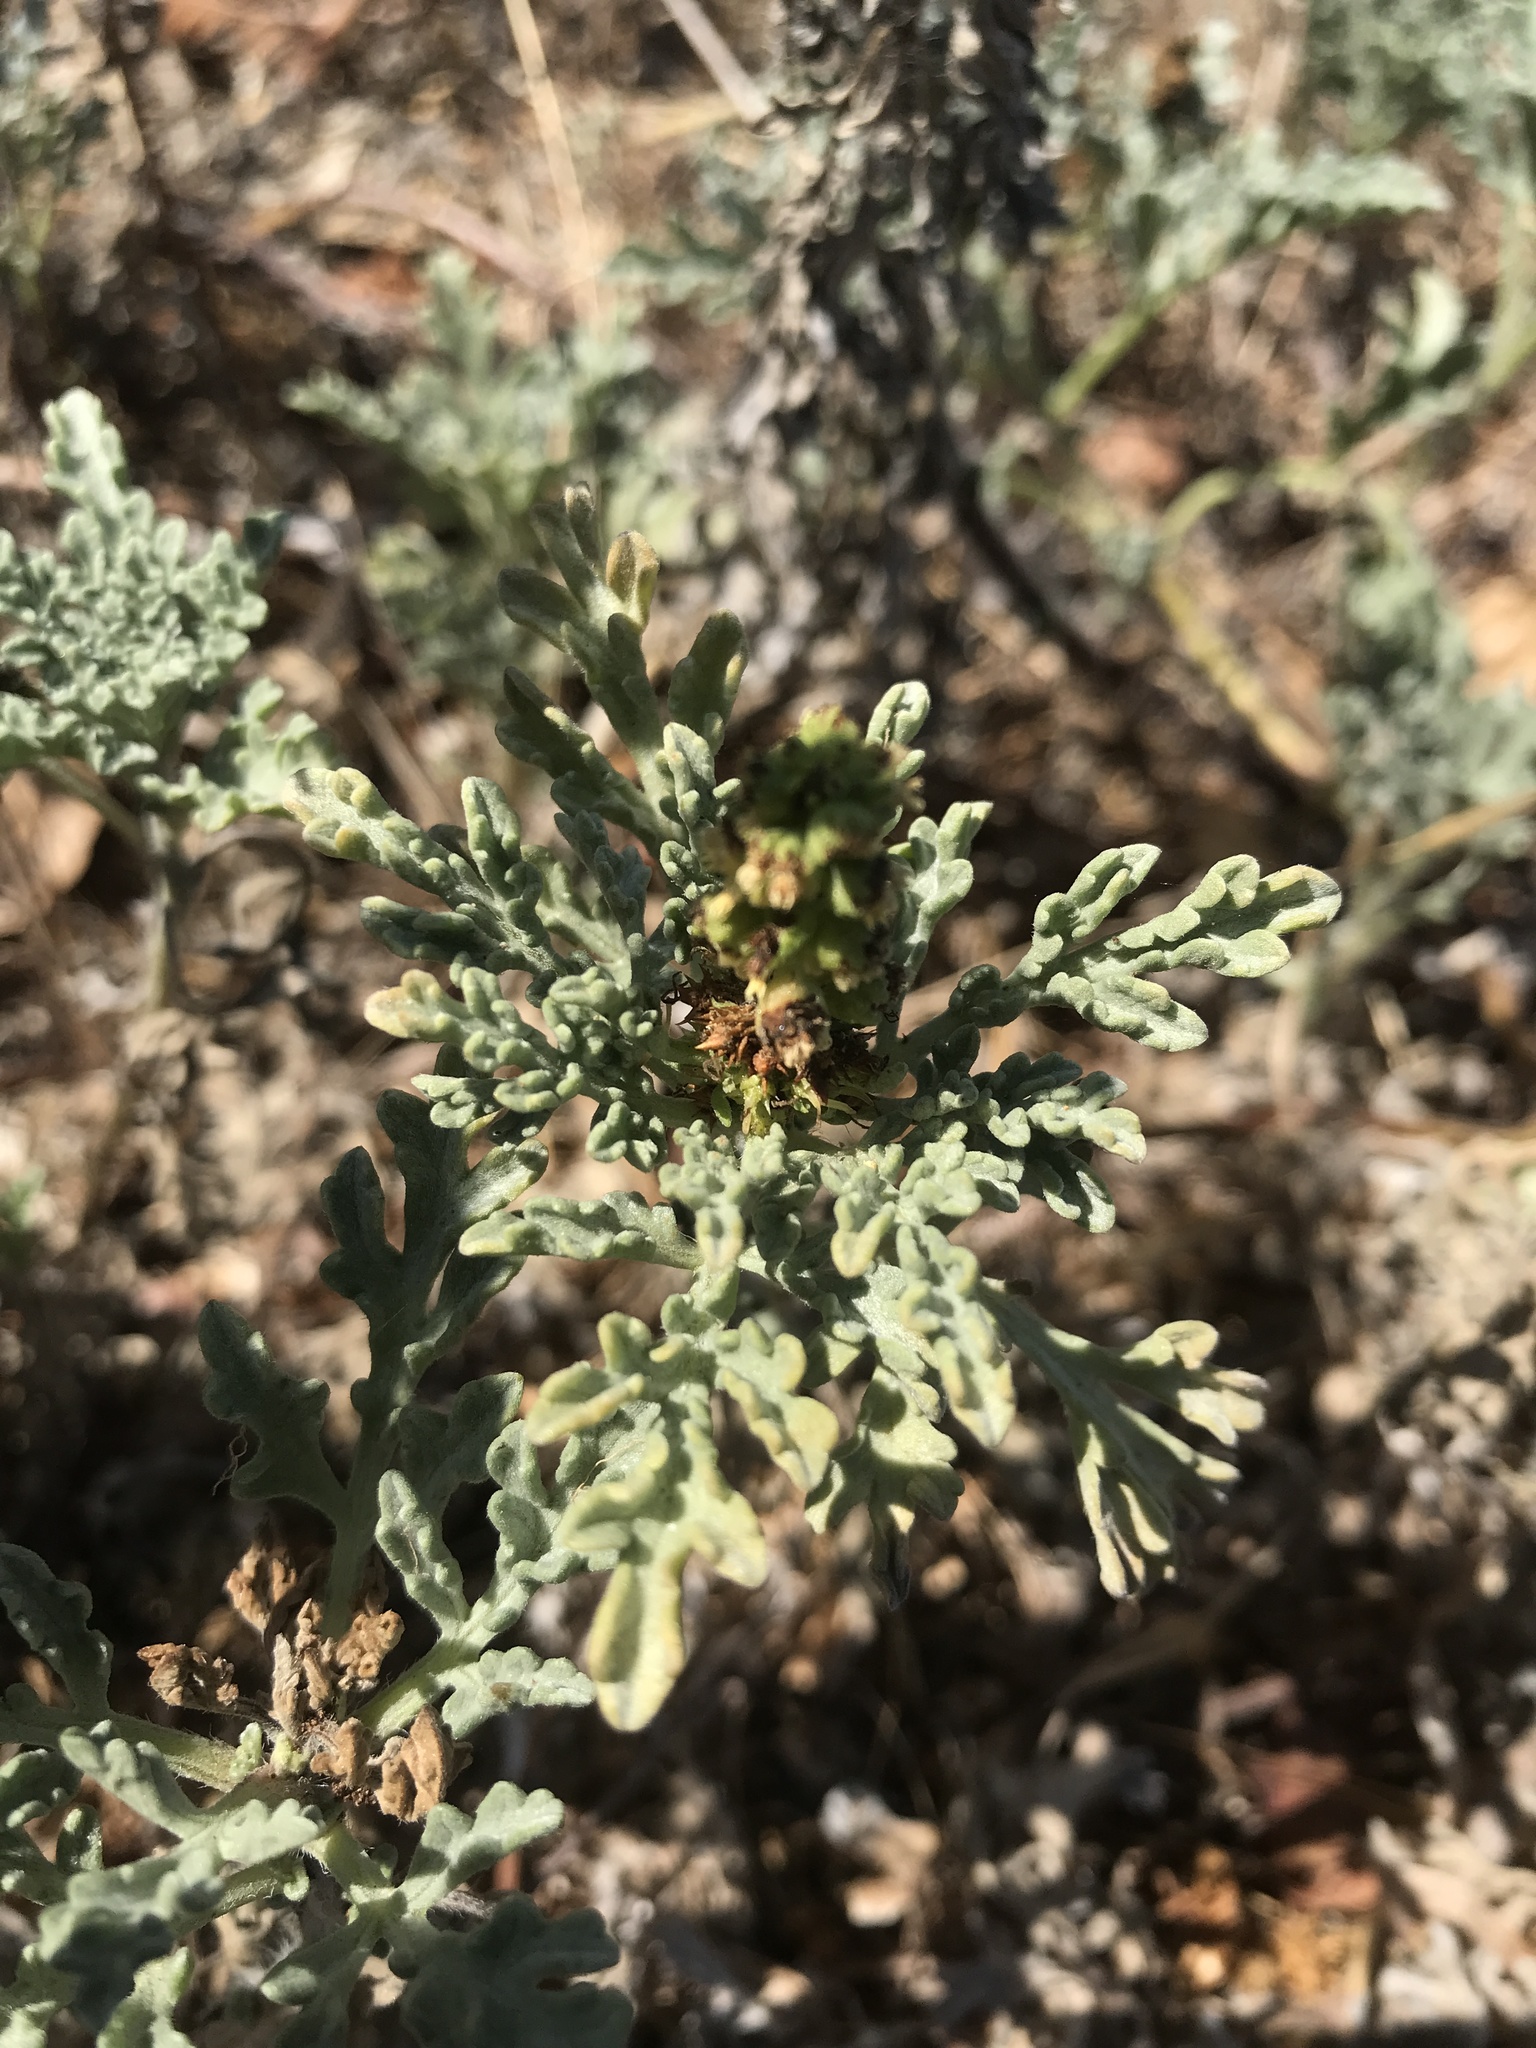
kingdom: Plantae
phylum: Tracheophyta
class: Magnoliopsida
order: Asterales
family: Asteraceae
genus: Ambrosia
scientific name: Ambrosia chamissonis
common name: Beachbur
